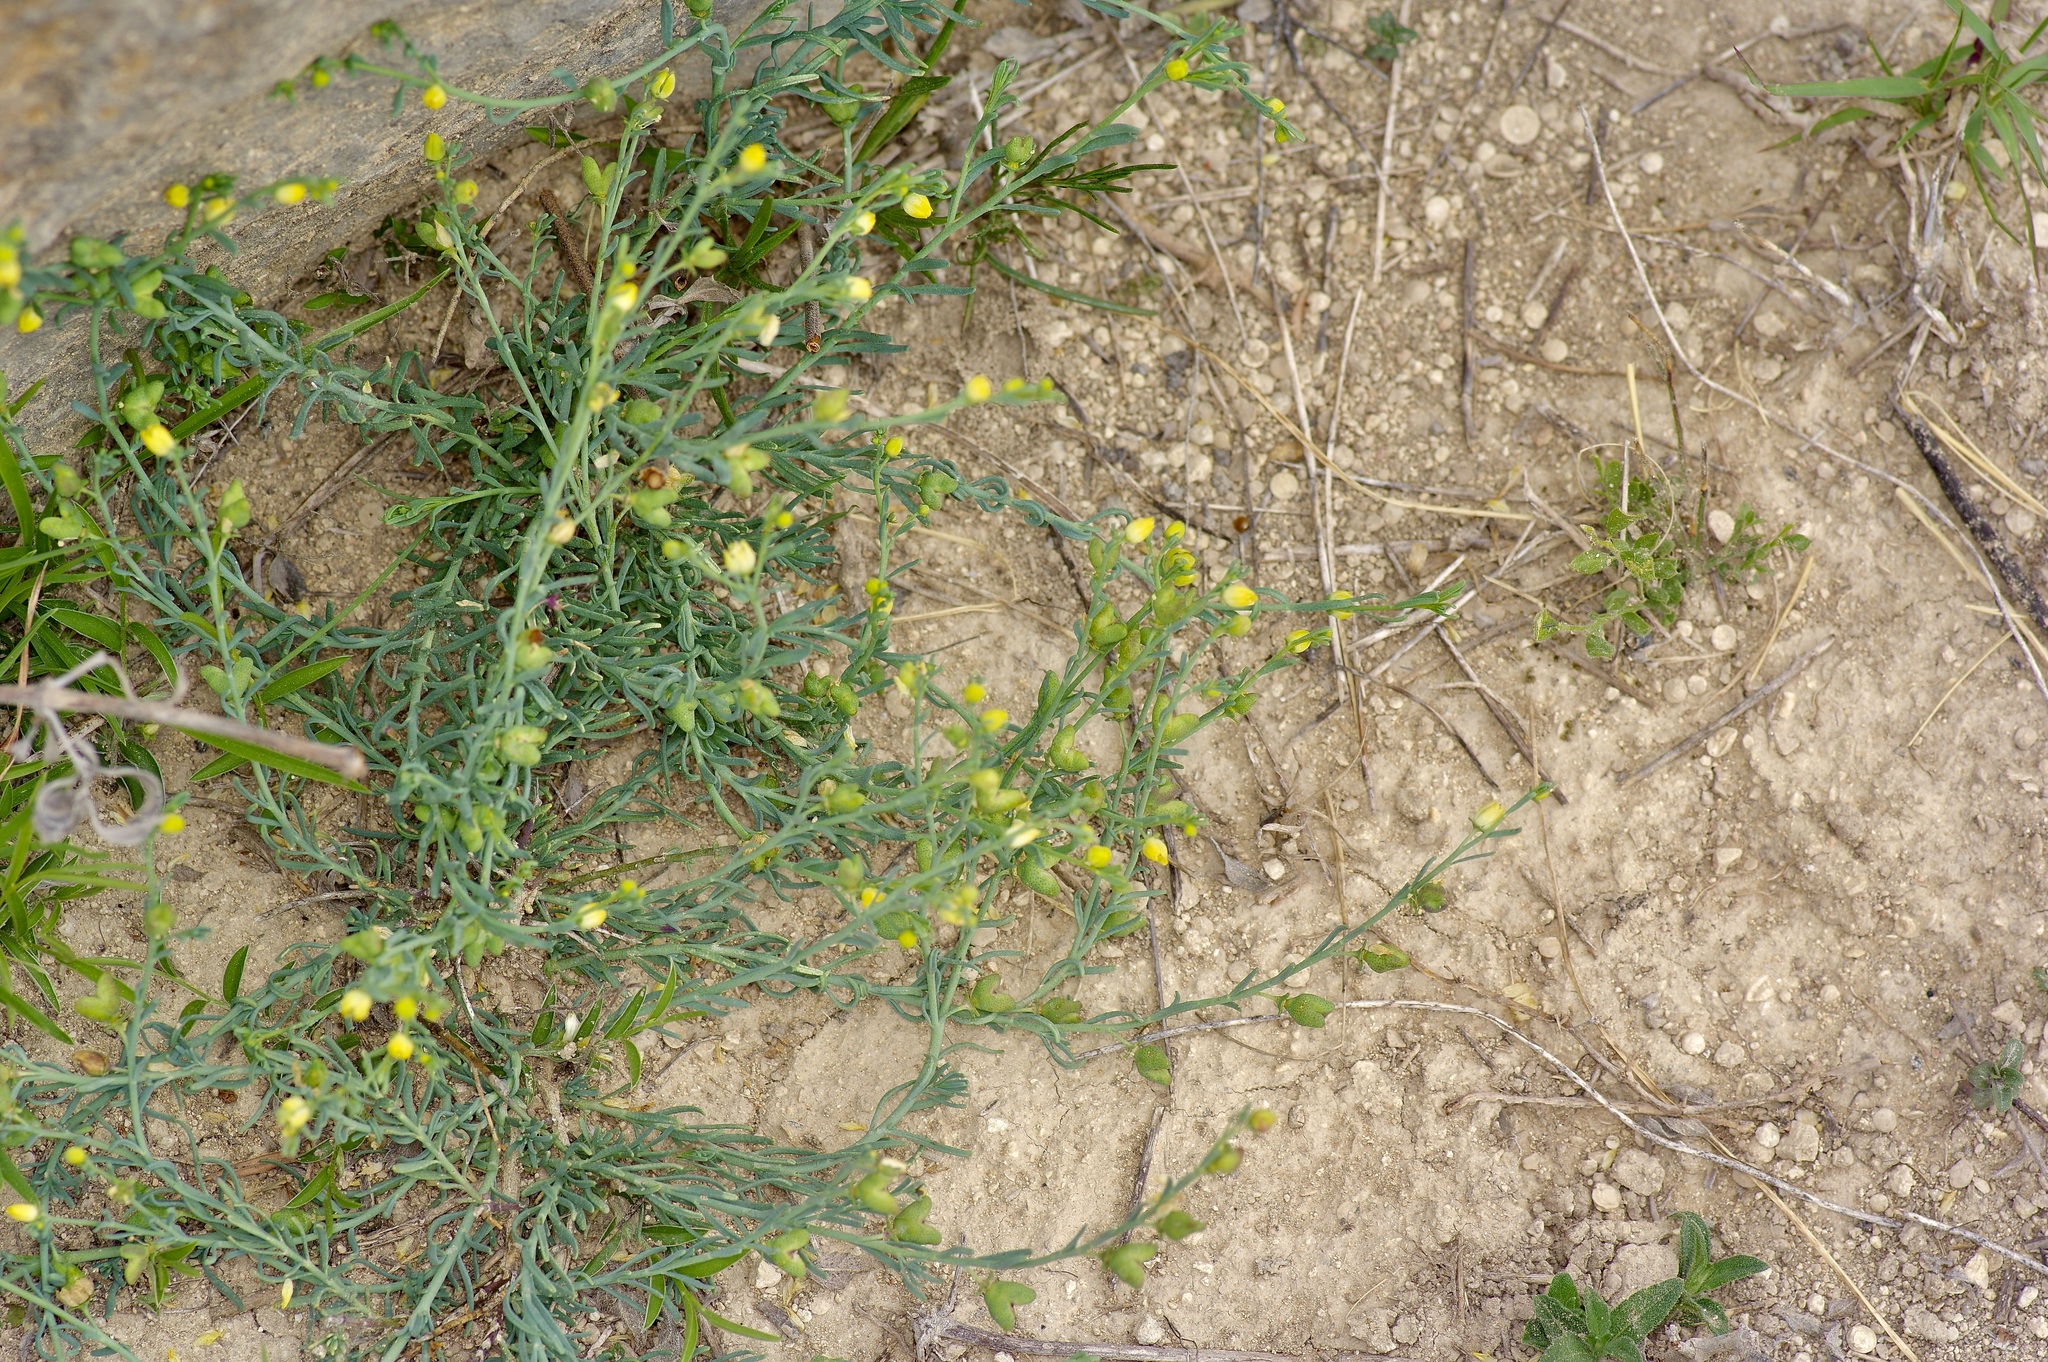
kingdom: Plantae
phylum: Tracheophyta
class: Magnoliopsida
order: Sapindales
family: Rutaceae
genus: Thamnosma
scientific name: Thamnosma texana
